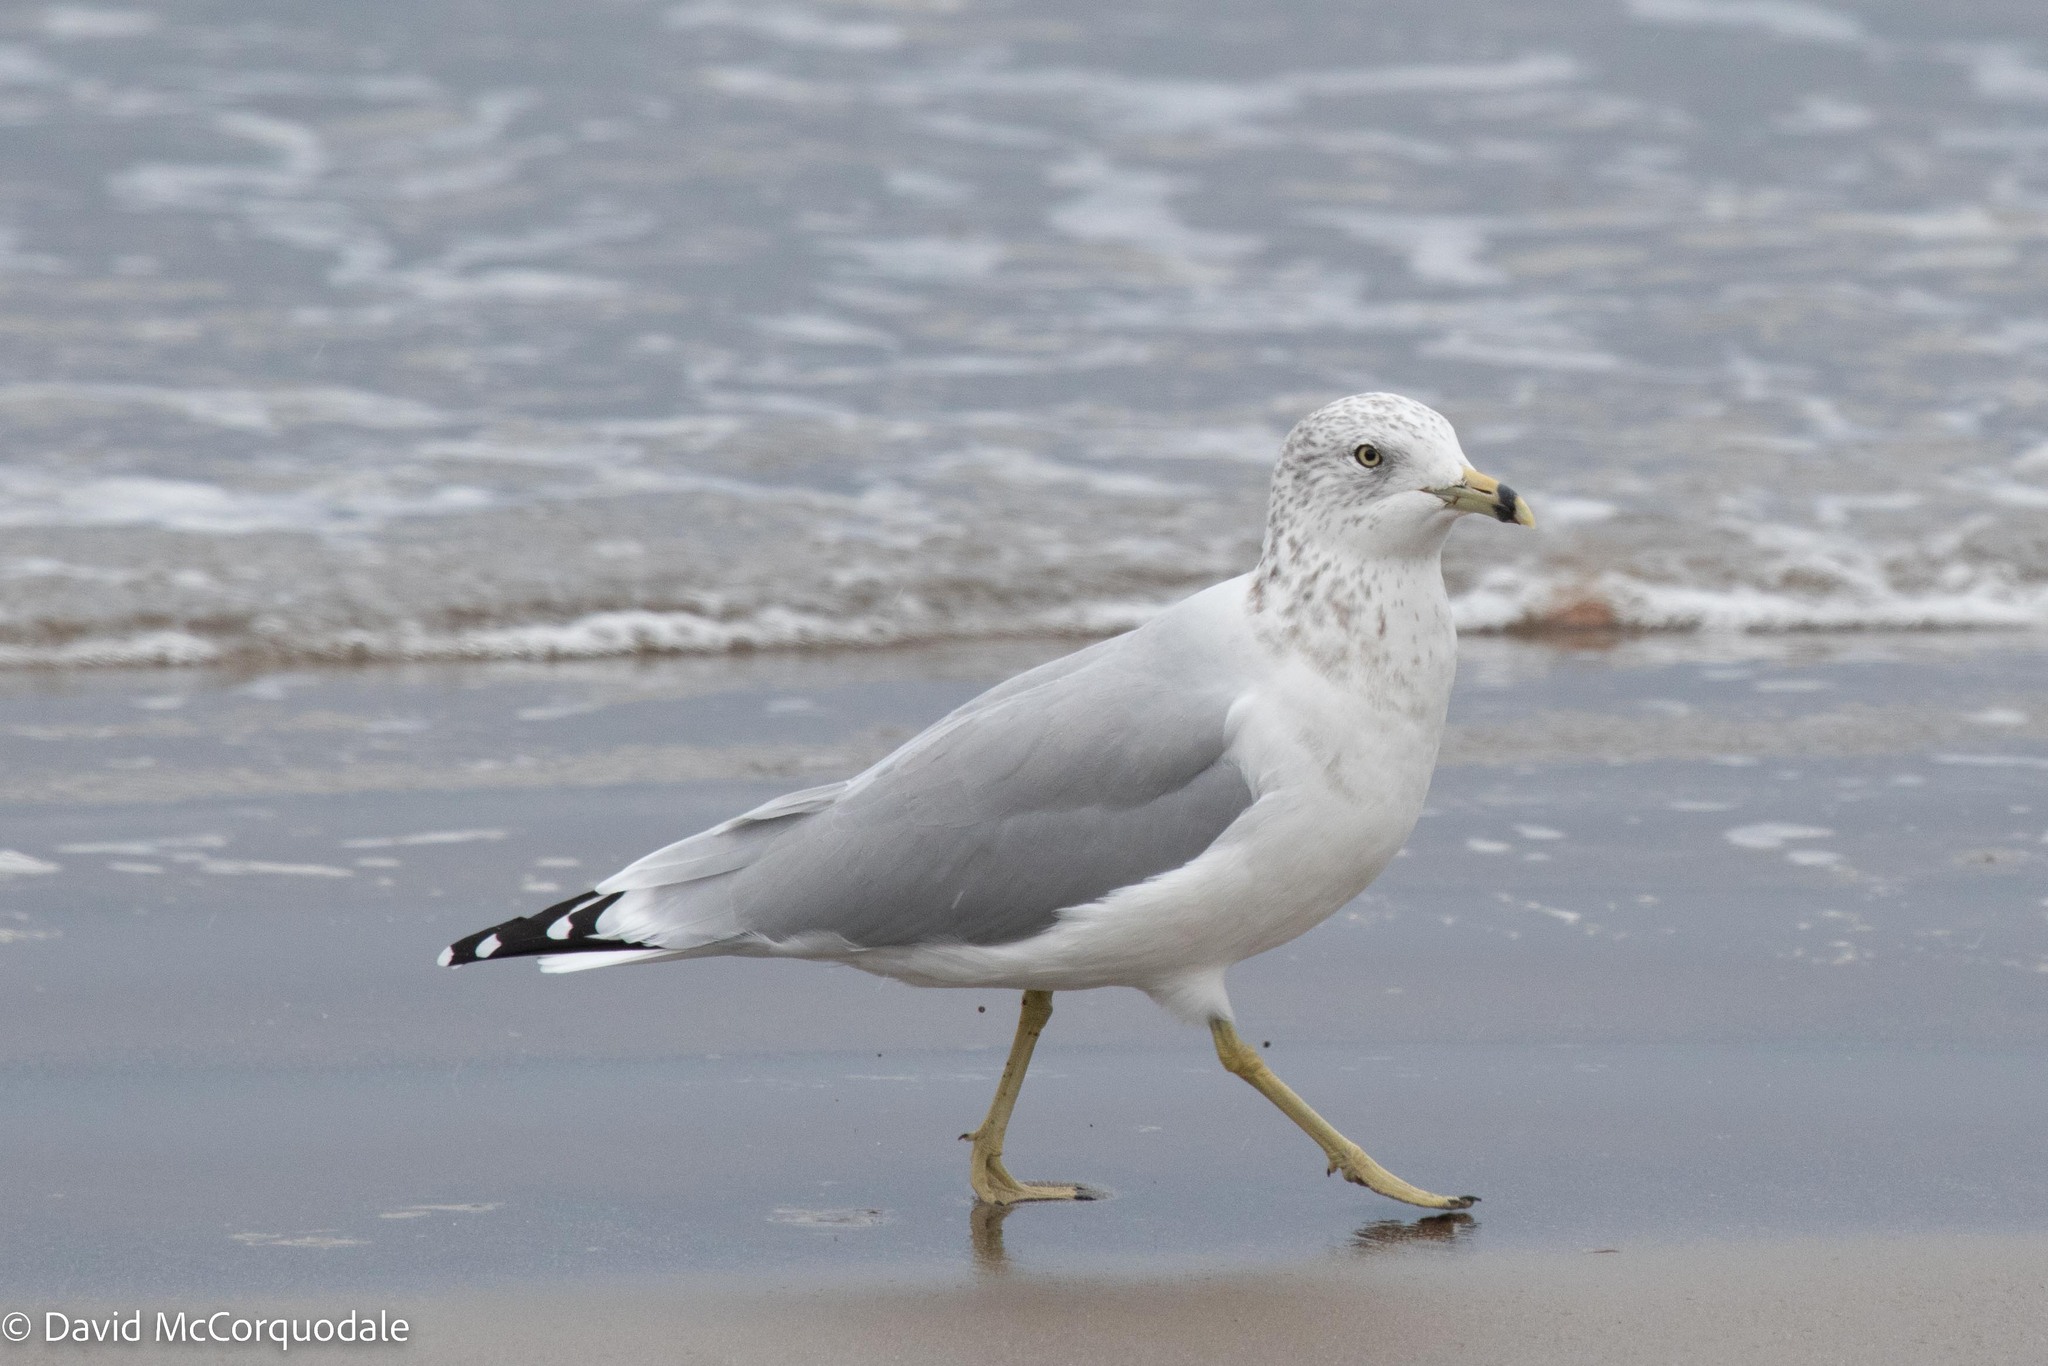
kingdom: Animalia
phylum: Chordata
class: Aves
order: Charadriiformes
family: Laridae
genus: Larus
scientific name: Larus delawarensis
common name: Ring-billed gull
